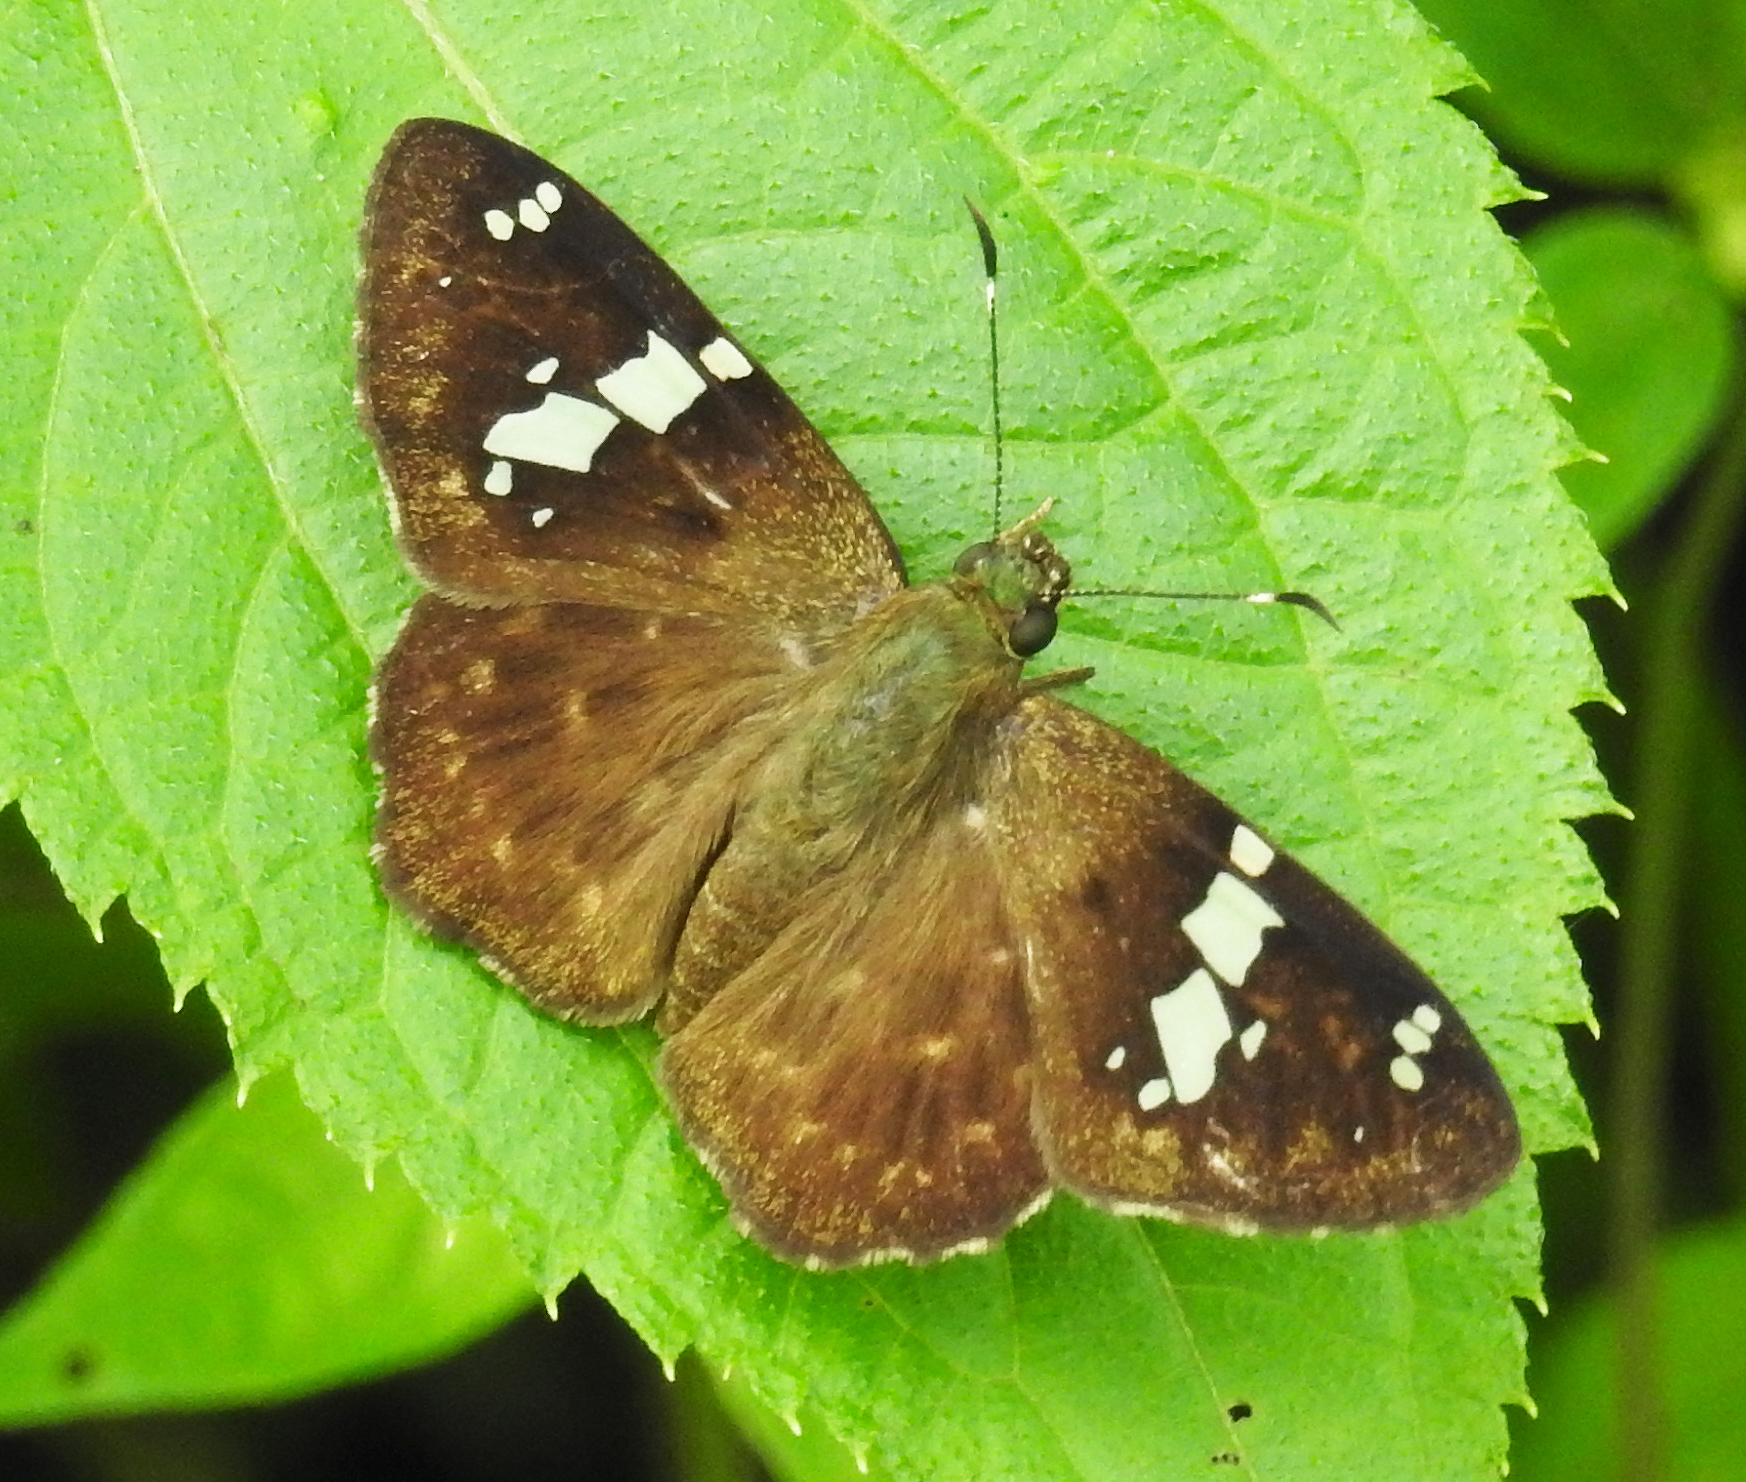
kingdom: Animalia
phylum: Arthropoda
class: Insecta
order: Lepidoptera
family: Hesperiidae
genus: Celaenorrhinus
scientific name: Celaenorrhinus eligius
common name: Eligius flat
